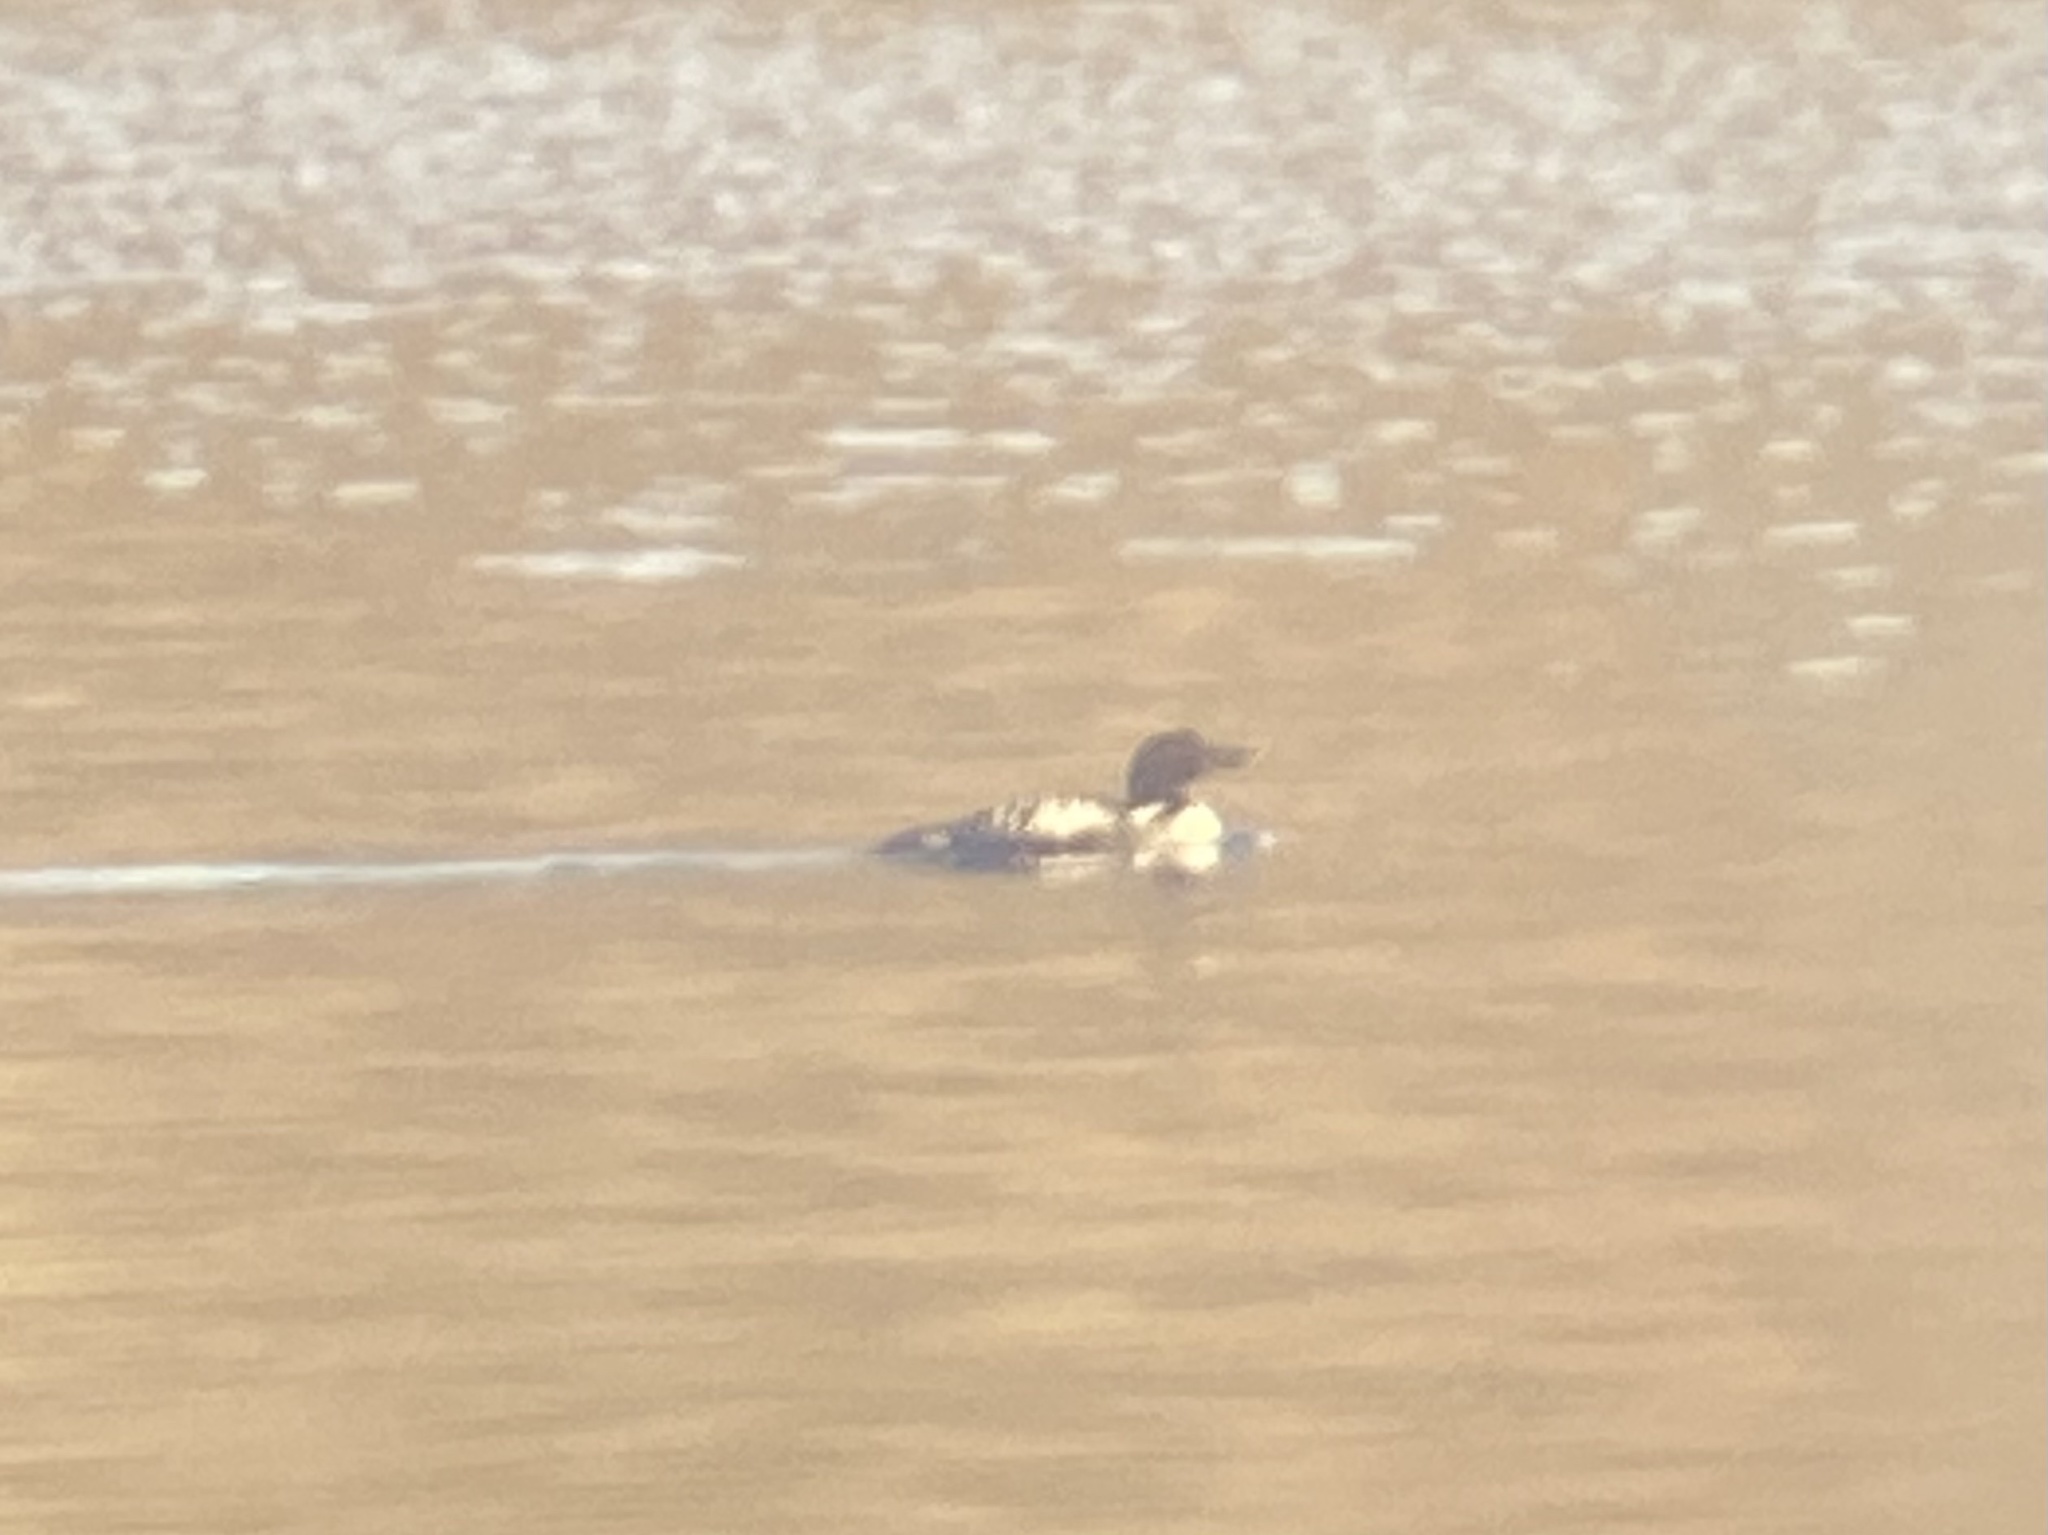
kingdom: Animalia
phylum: Chordata
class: Aves
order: Gaviiformes
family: Gaviidae
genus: Gavia
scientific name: Gavia immer
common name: Common loon
